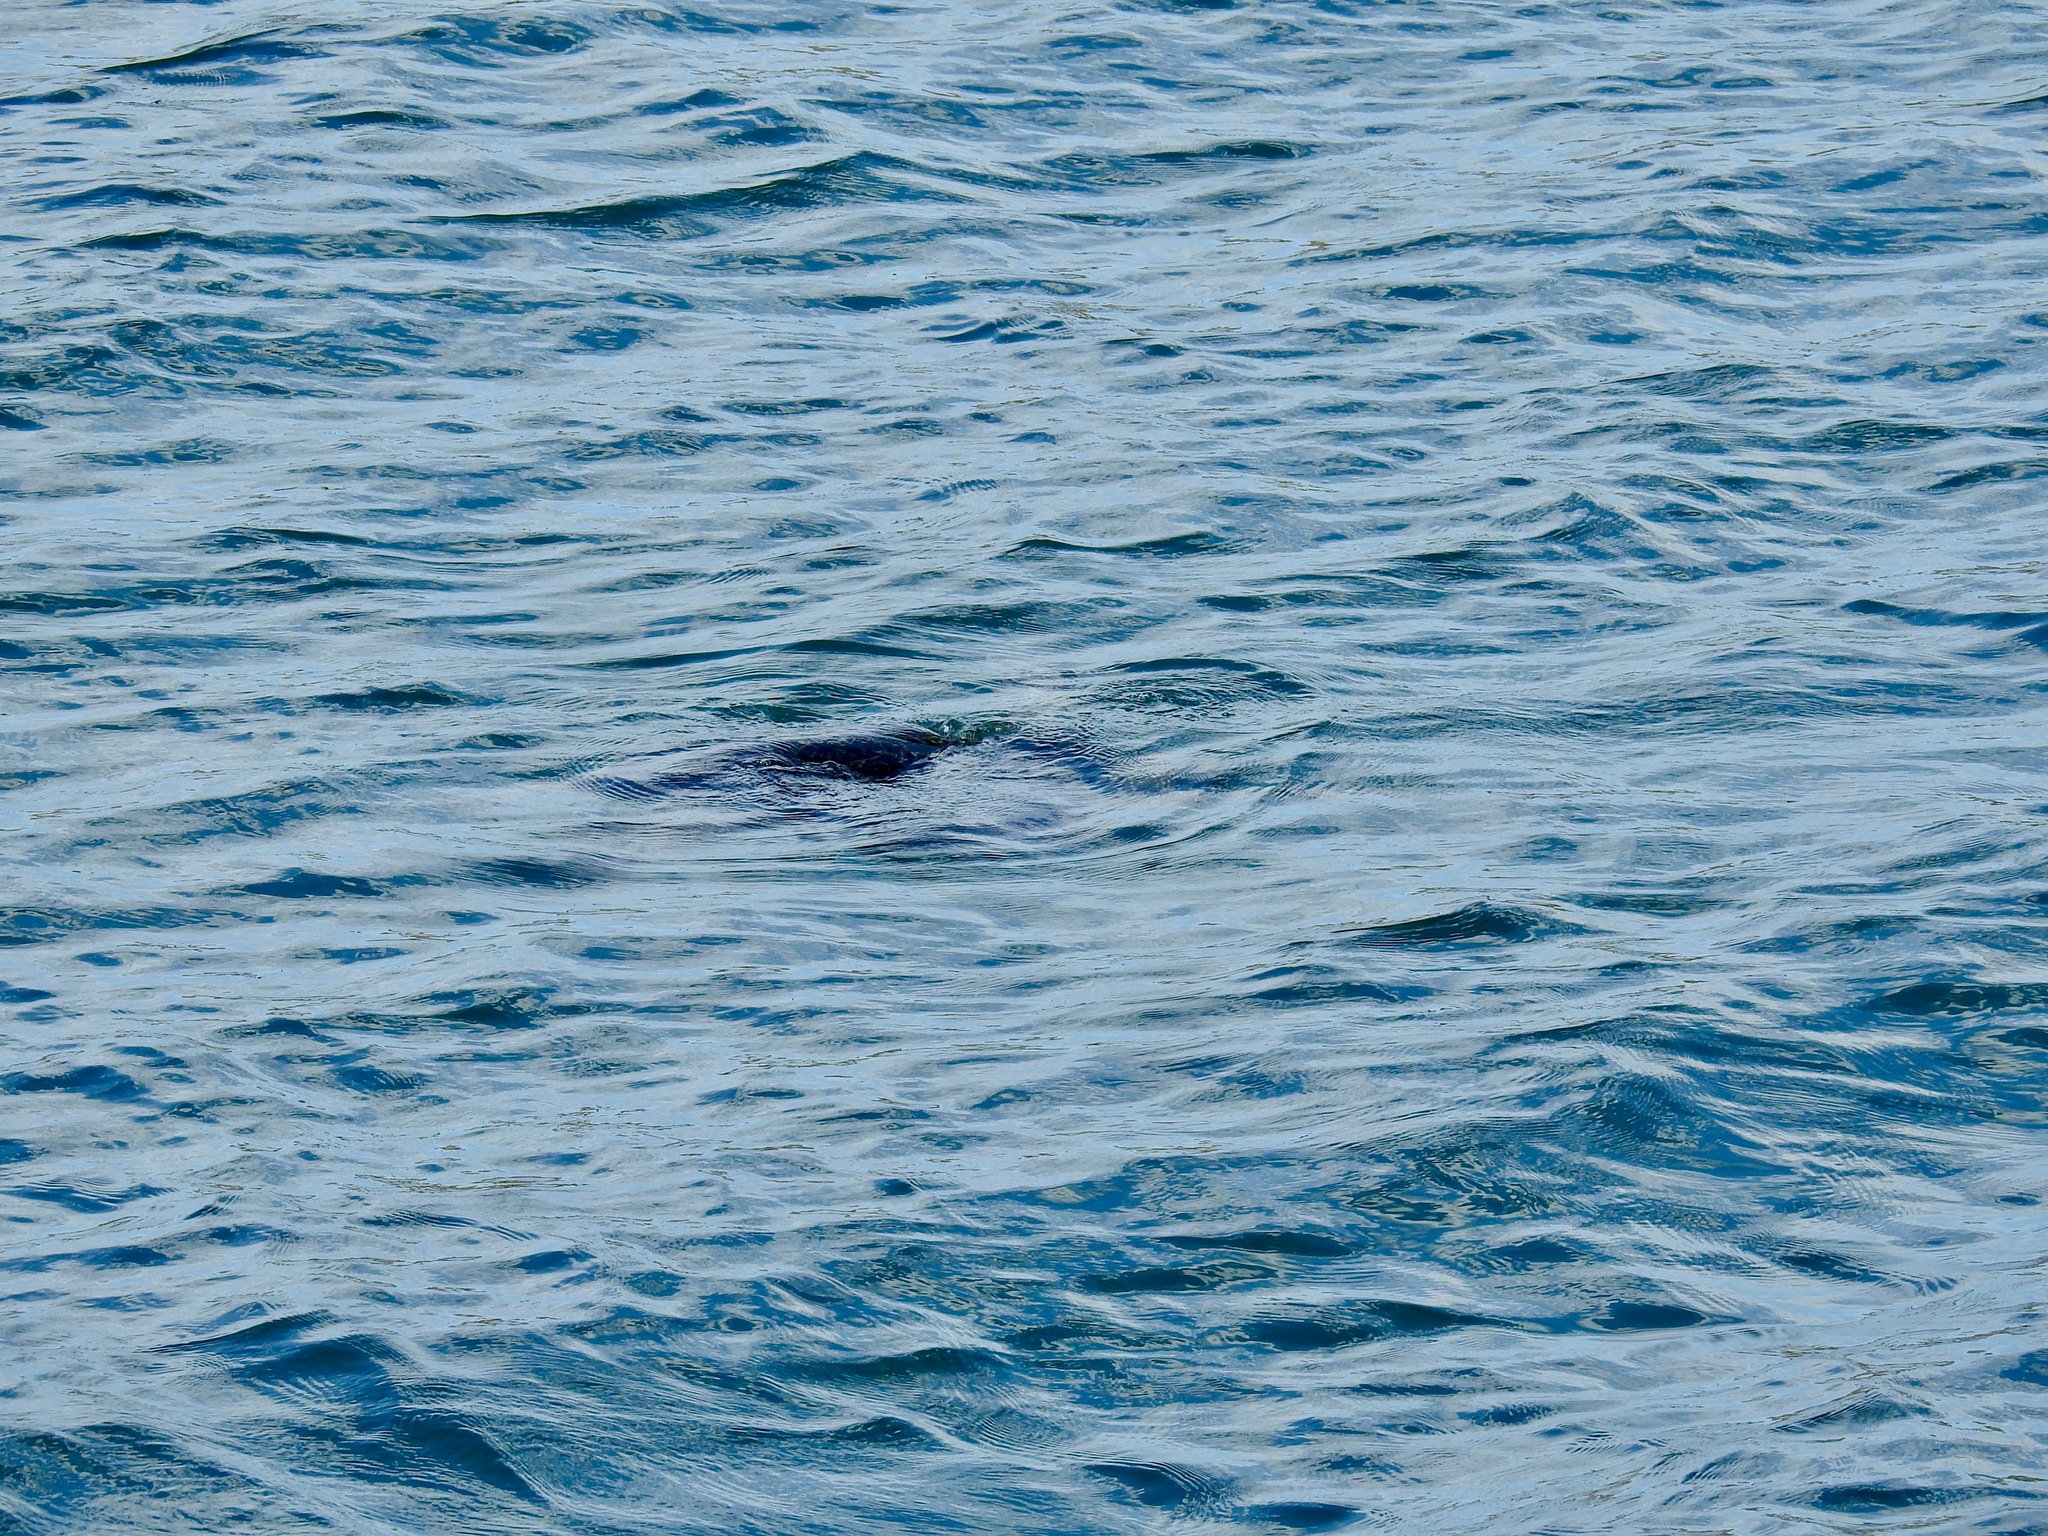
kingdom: Animalia
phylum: Chordata
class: Testudines
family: Cheloniidae
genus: Chelonia
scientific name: Chelonia mydas
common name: Green turtle
